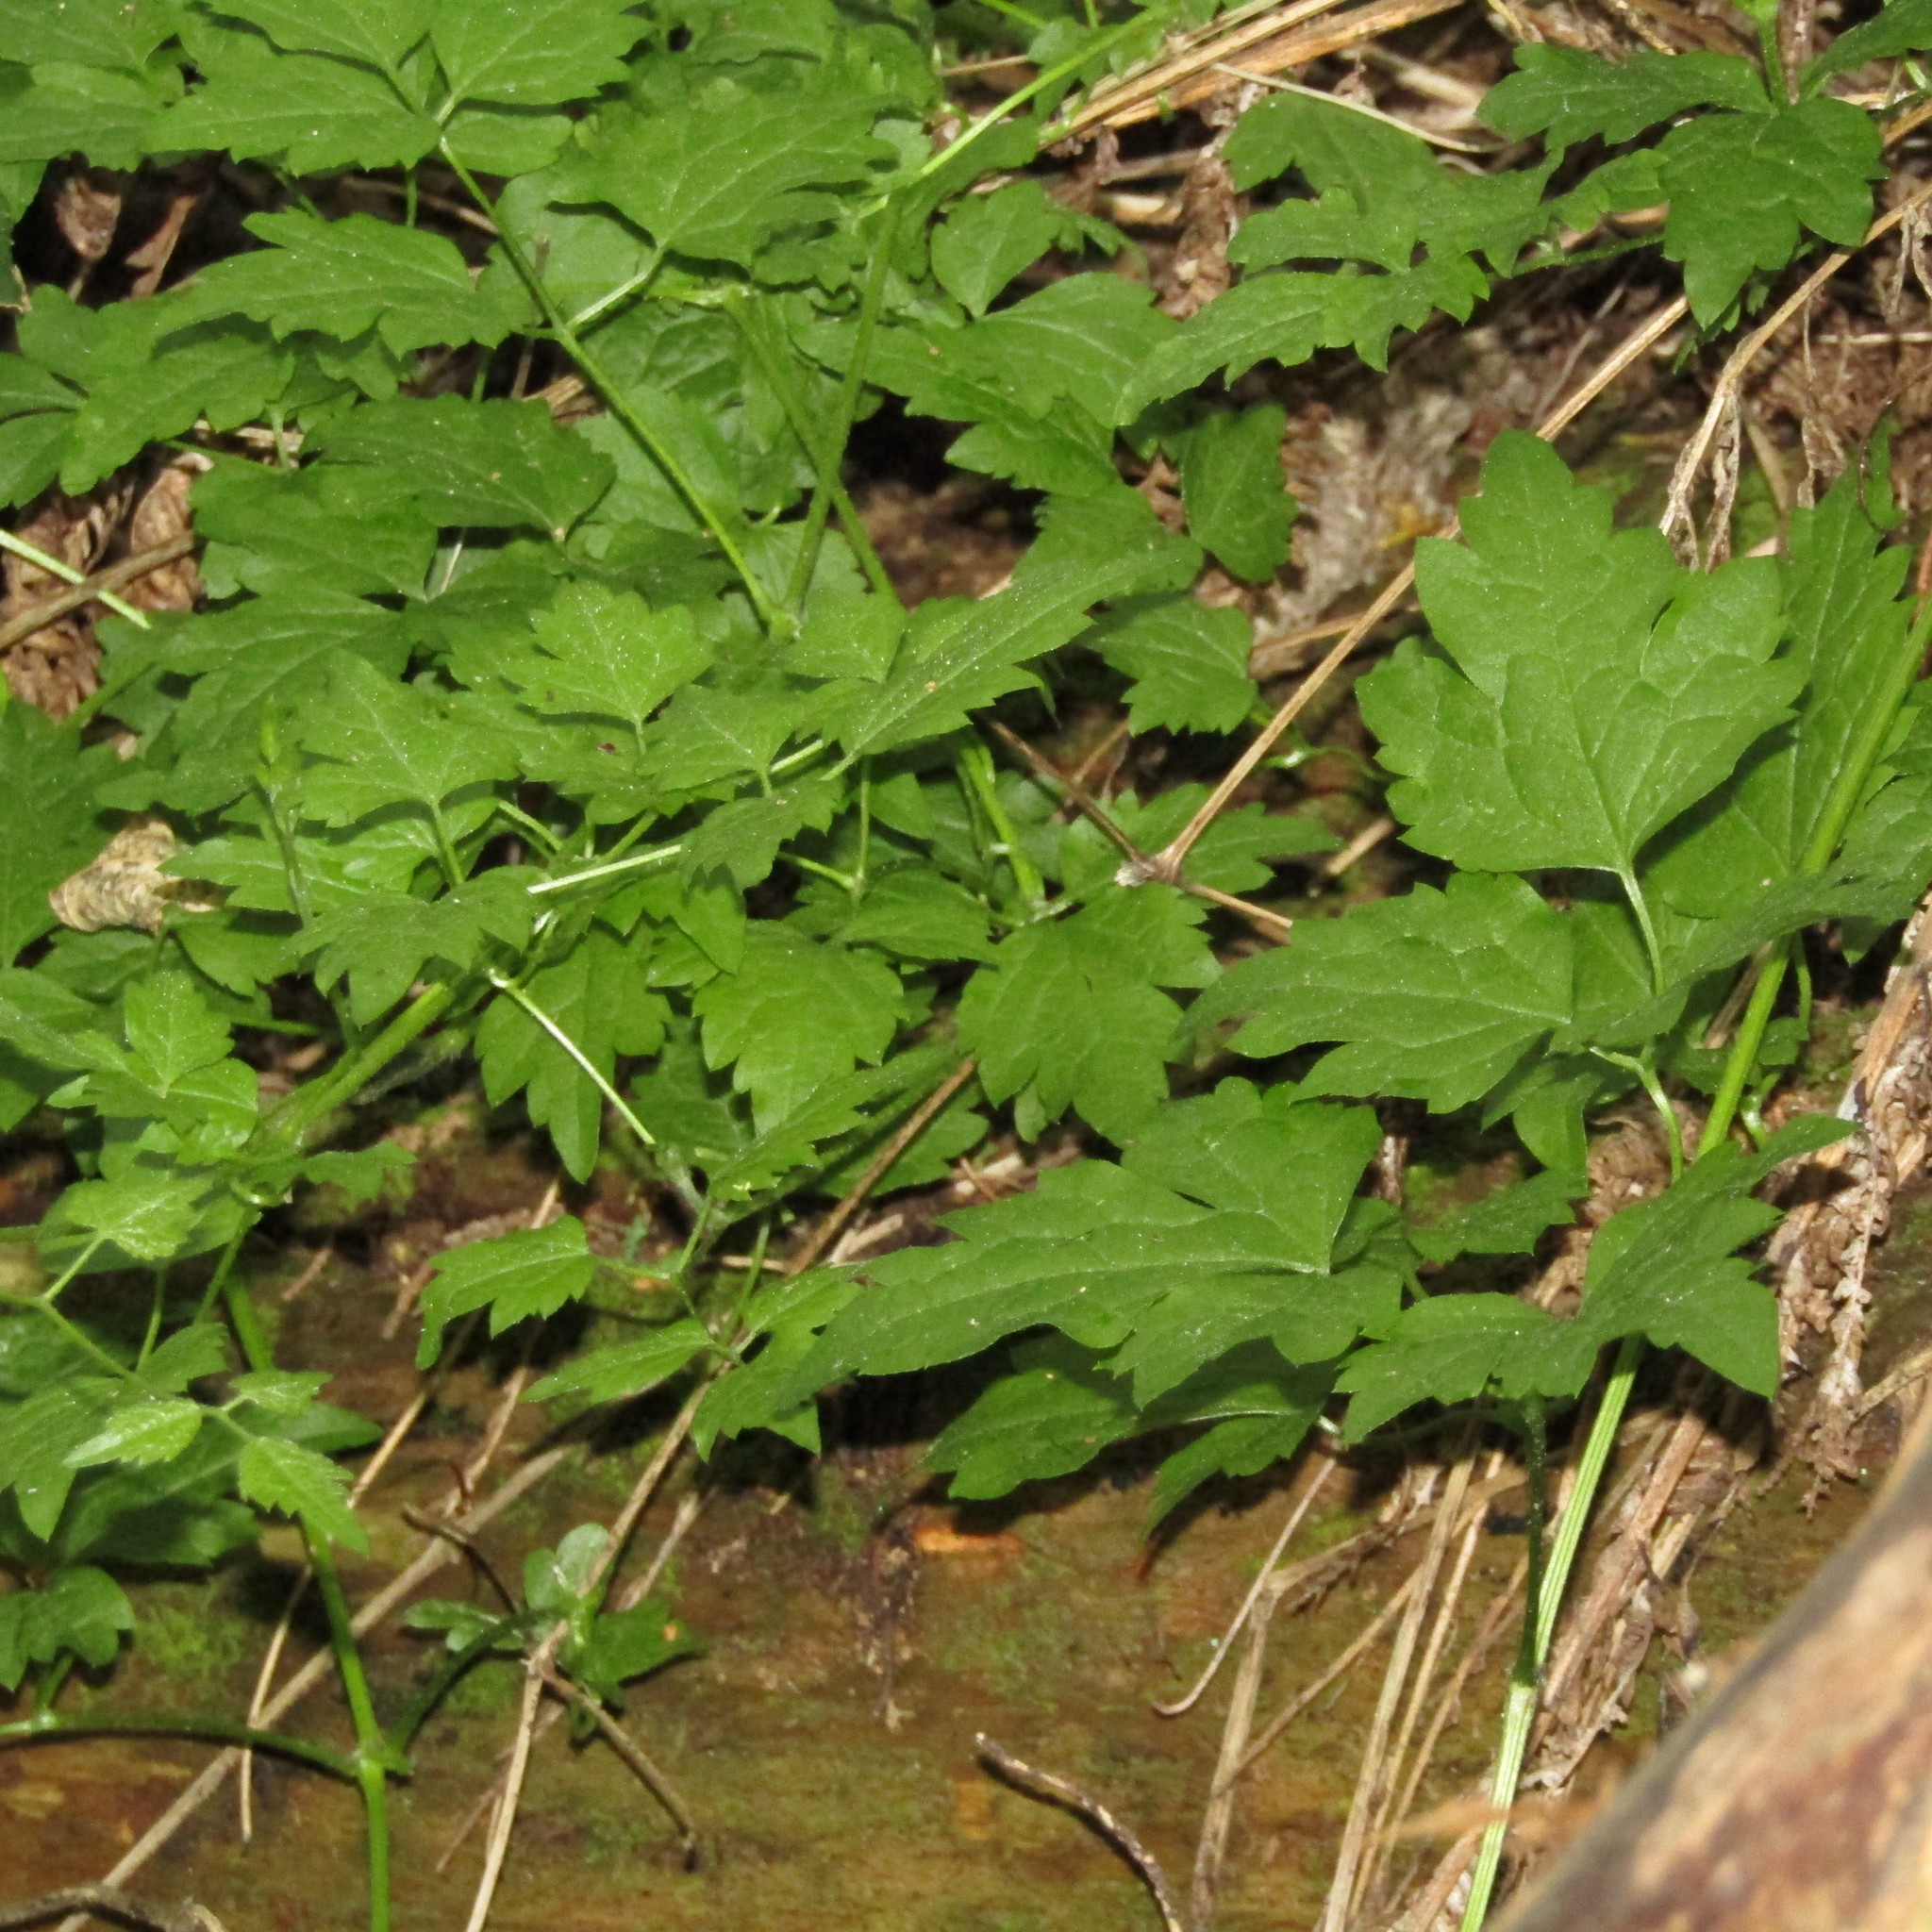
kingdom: Plantae
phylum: Tracheophyta
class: Magnoliopsida
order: Ranunculales
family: Ranunculaceae
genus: Clematis
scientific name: Clematis vitalba
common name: Evergreen clematis
